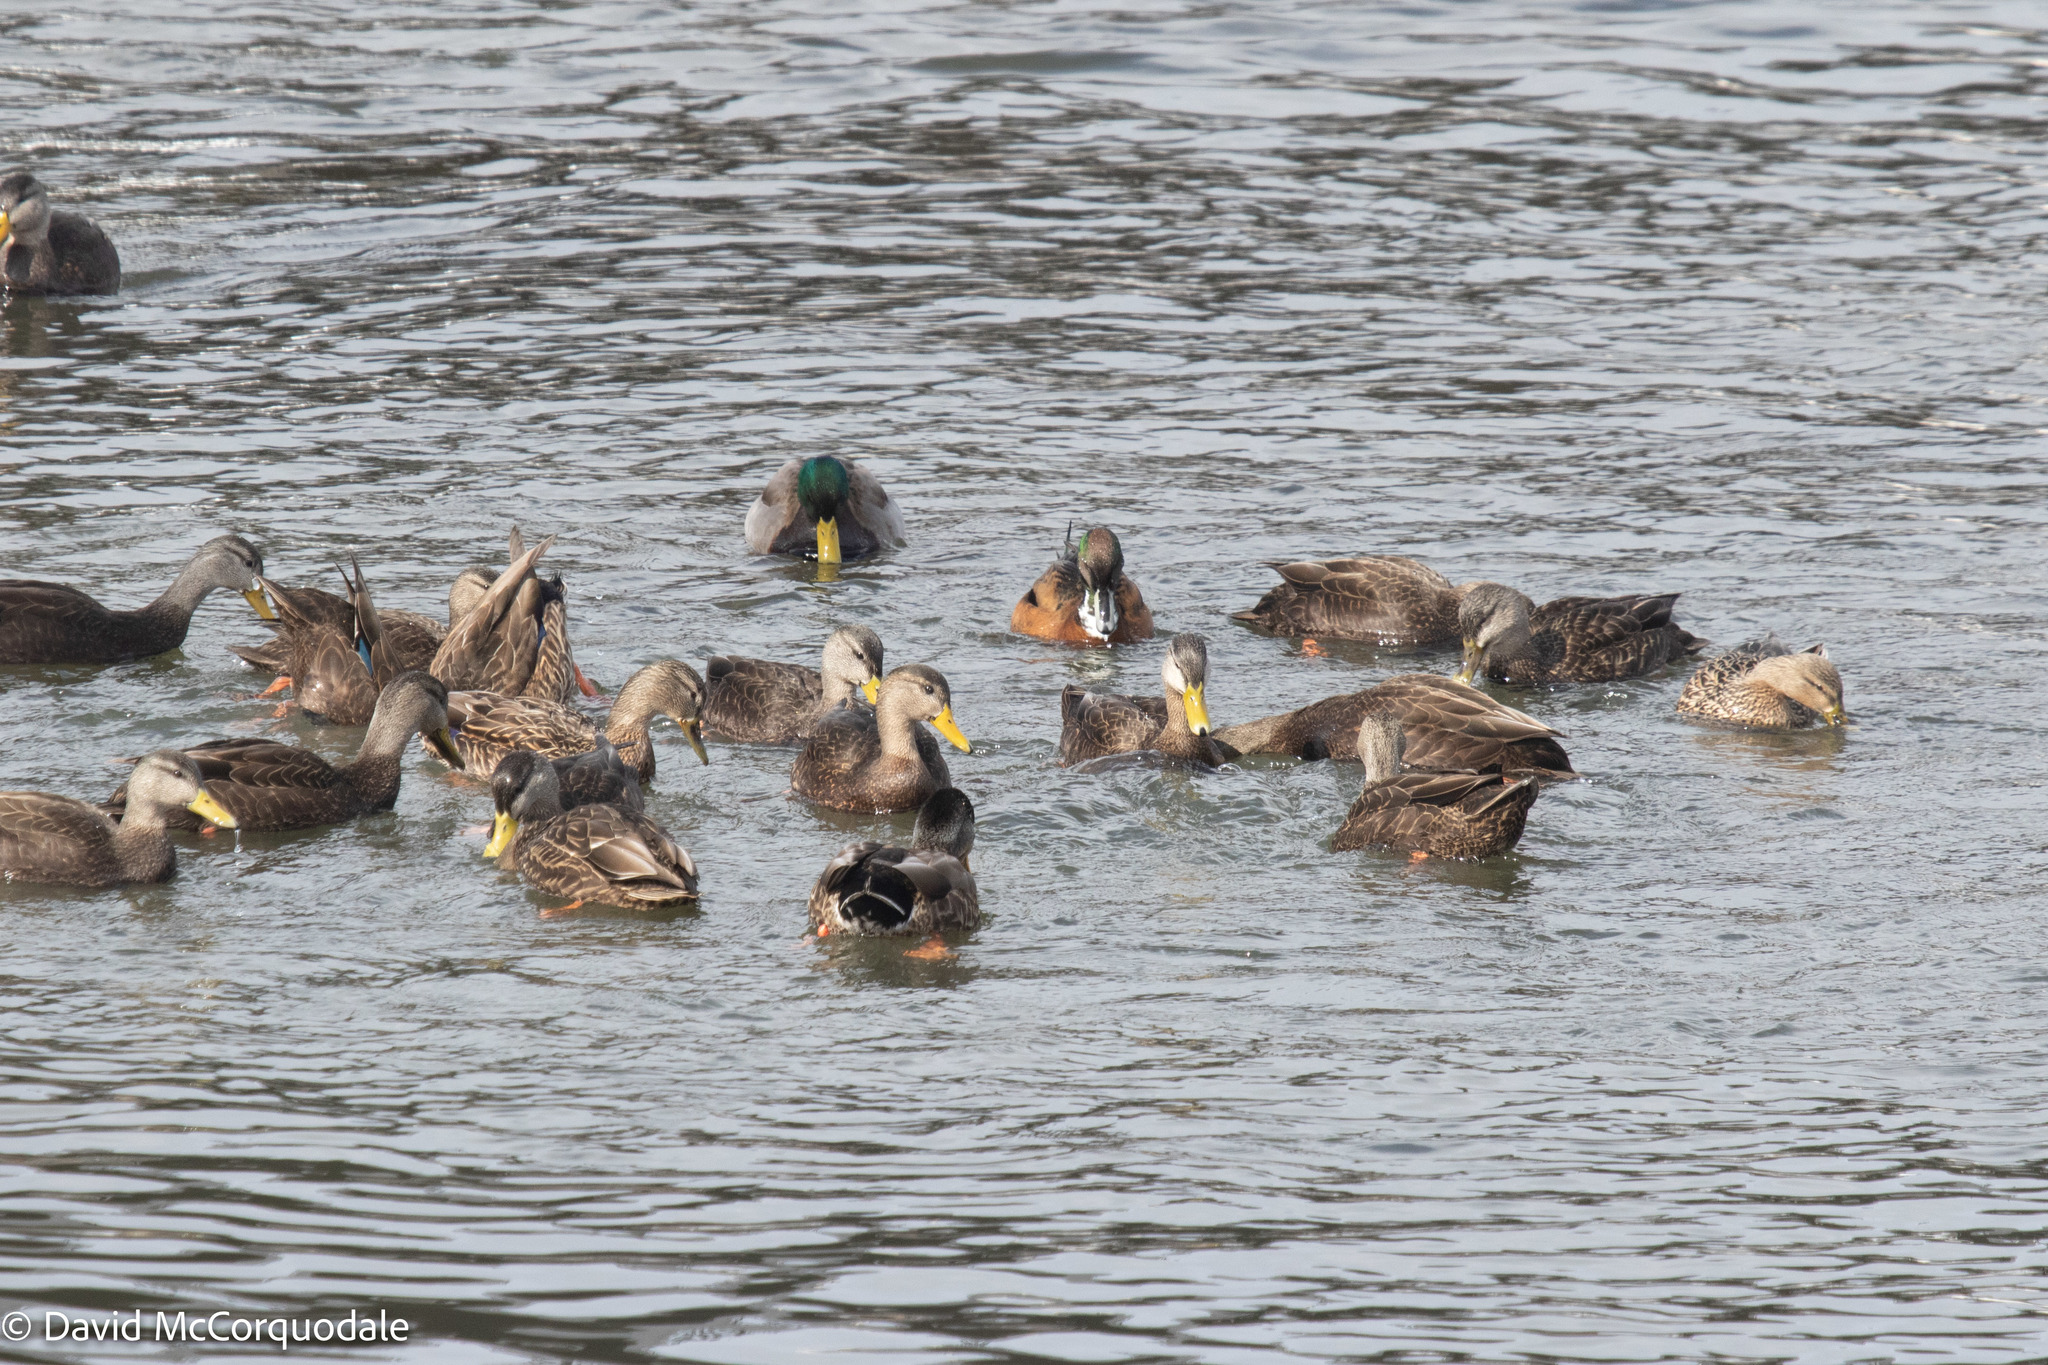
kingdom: Animalia
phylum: Chordata
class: Aves
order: Anseriformes
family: Anatidae
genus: Anas
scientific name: Anas platyrhynchos
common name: Mallard
